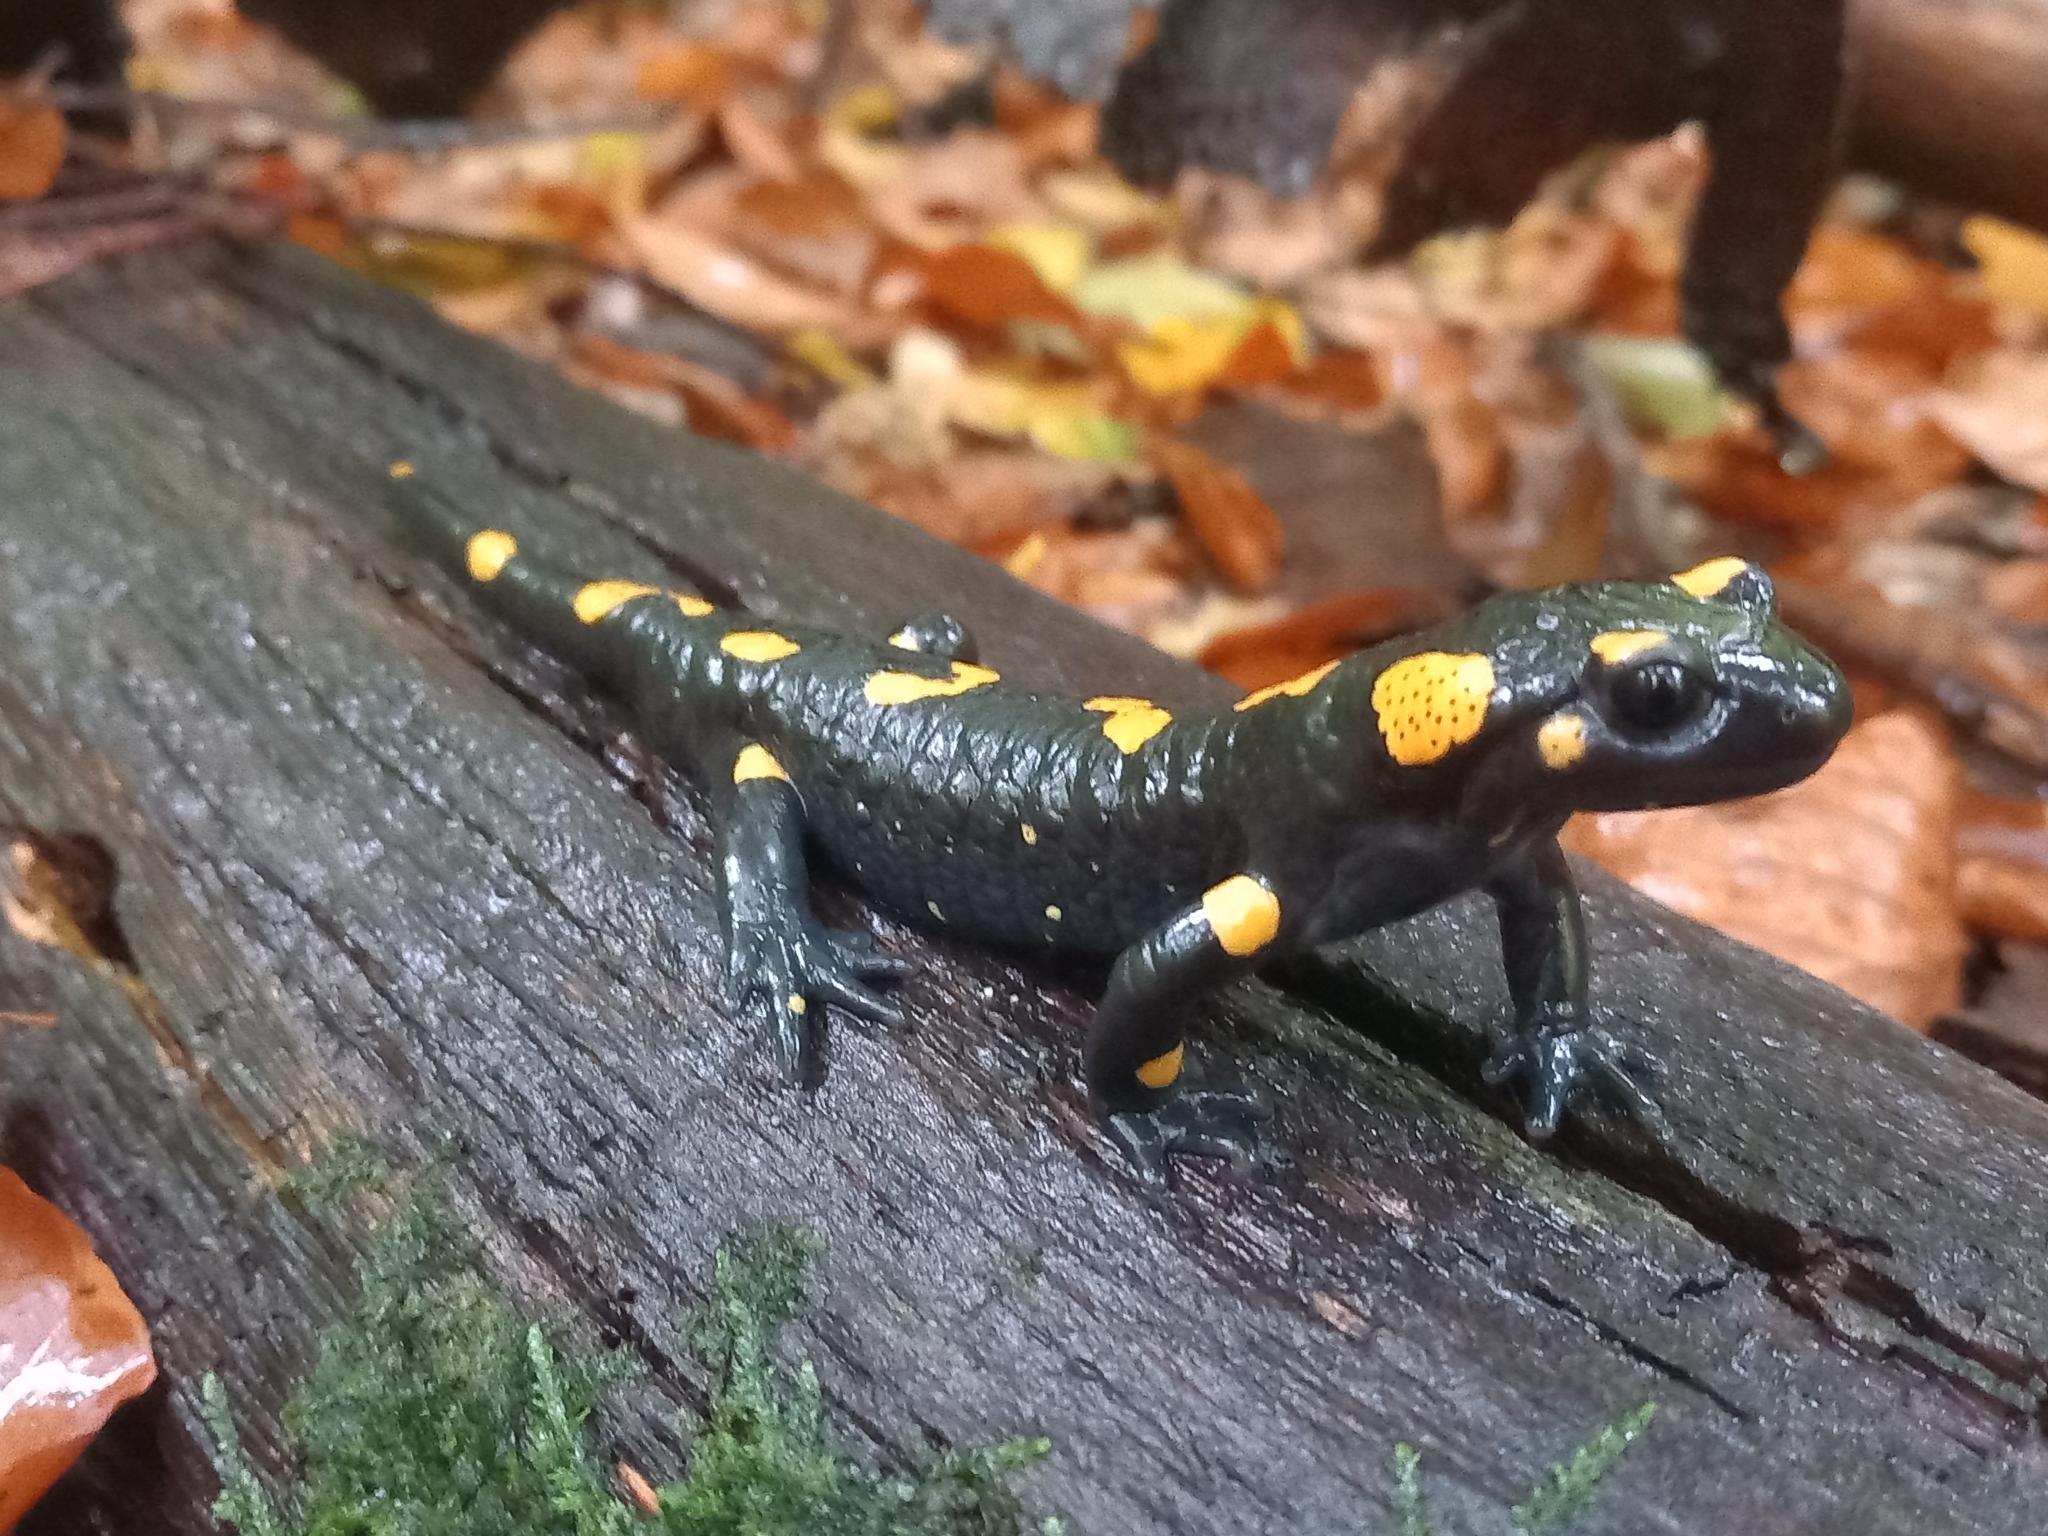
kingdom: Animalia
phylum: Chordata
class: Amphibia
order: Caudata
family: Salamandridae
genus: Salamandra
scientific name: Salamandra salamandra
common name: Fire salamander
